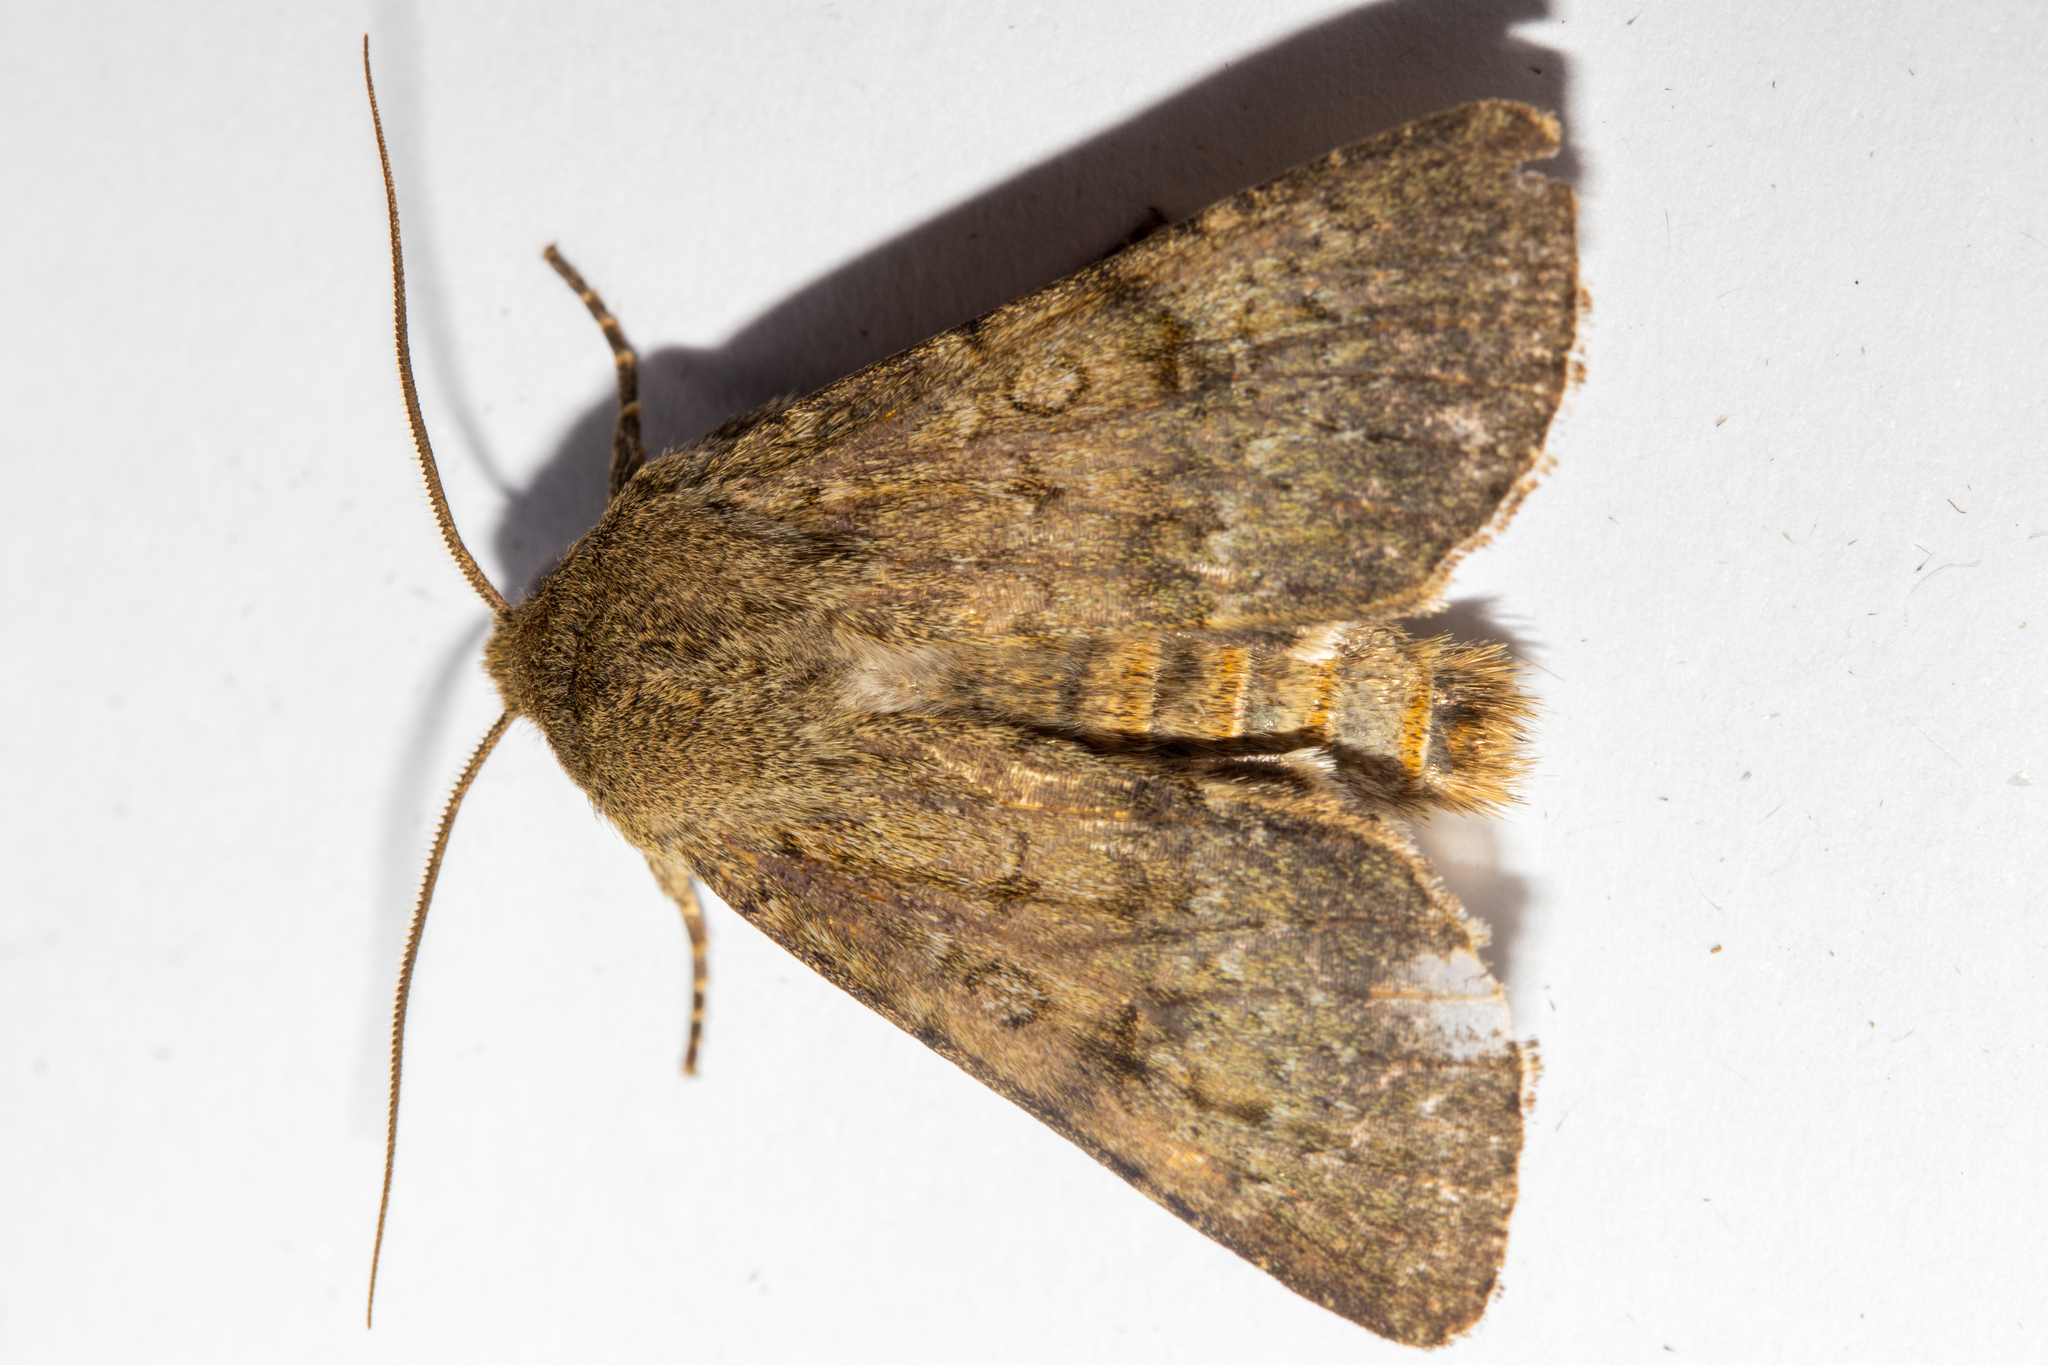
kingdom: Animalia
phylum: Arthropoda
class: Insecta
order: Lepidoptera
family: Noctuidae
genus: Ichneutica
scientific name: Ichneutica moderata
